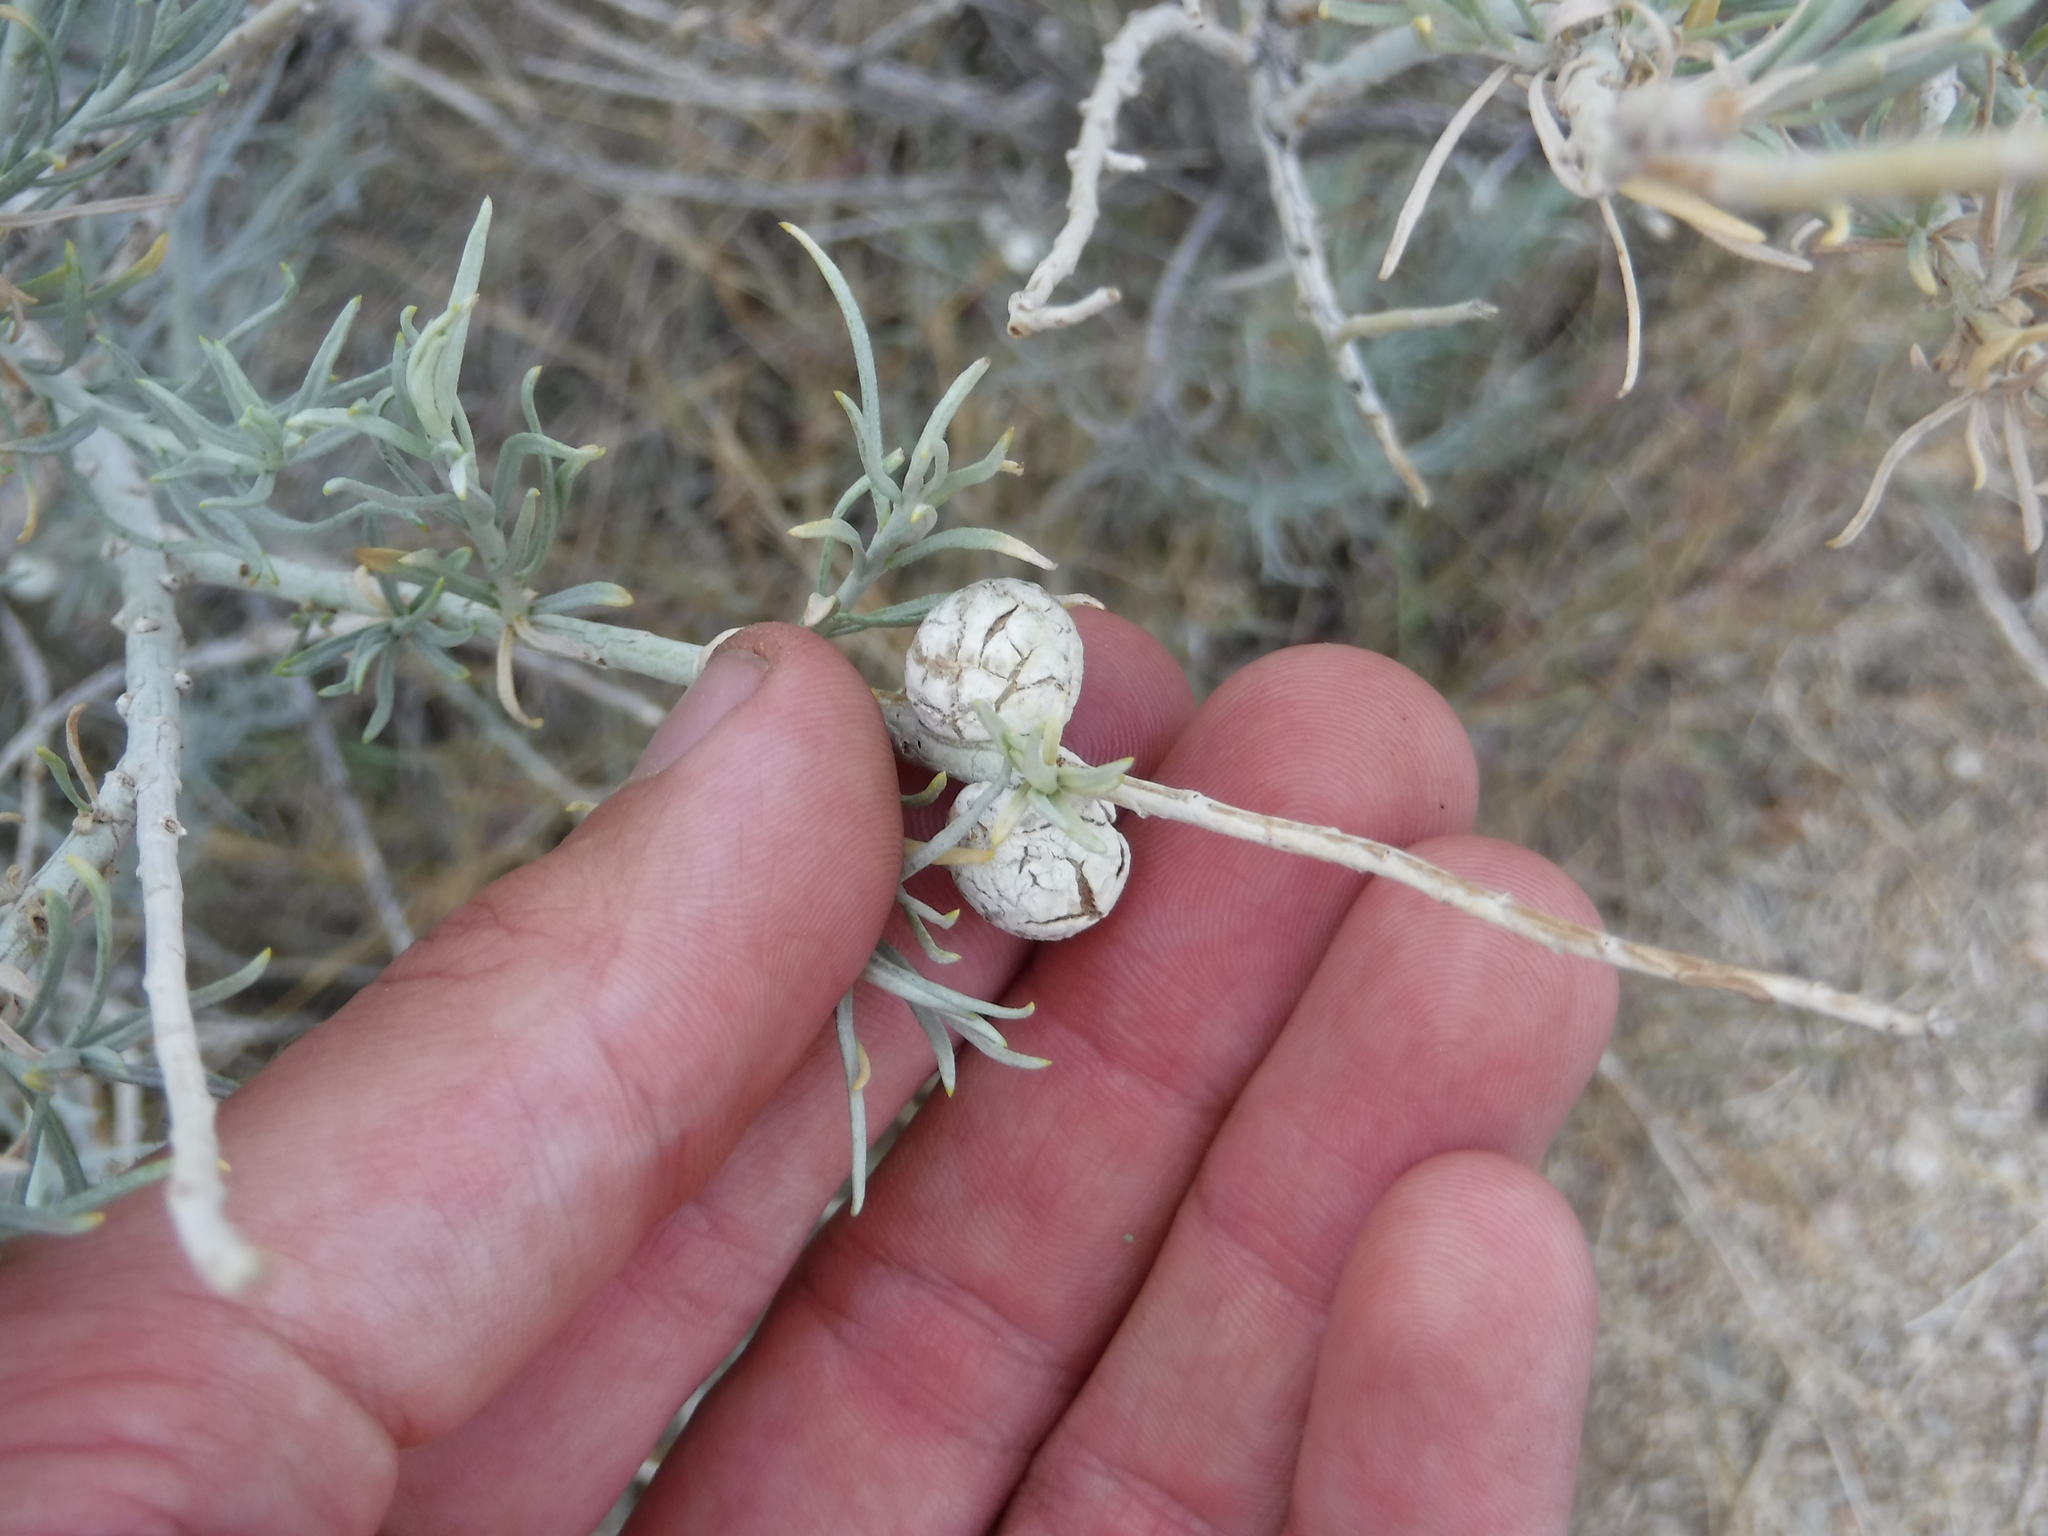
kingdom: Animalia
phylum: Arthropoda
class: Insecta
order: Diptera
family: Tephritidae
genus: Aciurina
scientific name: Aciurina trixa
